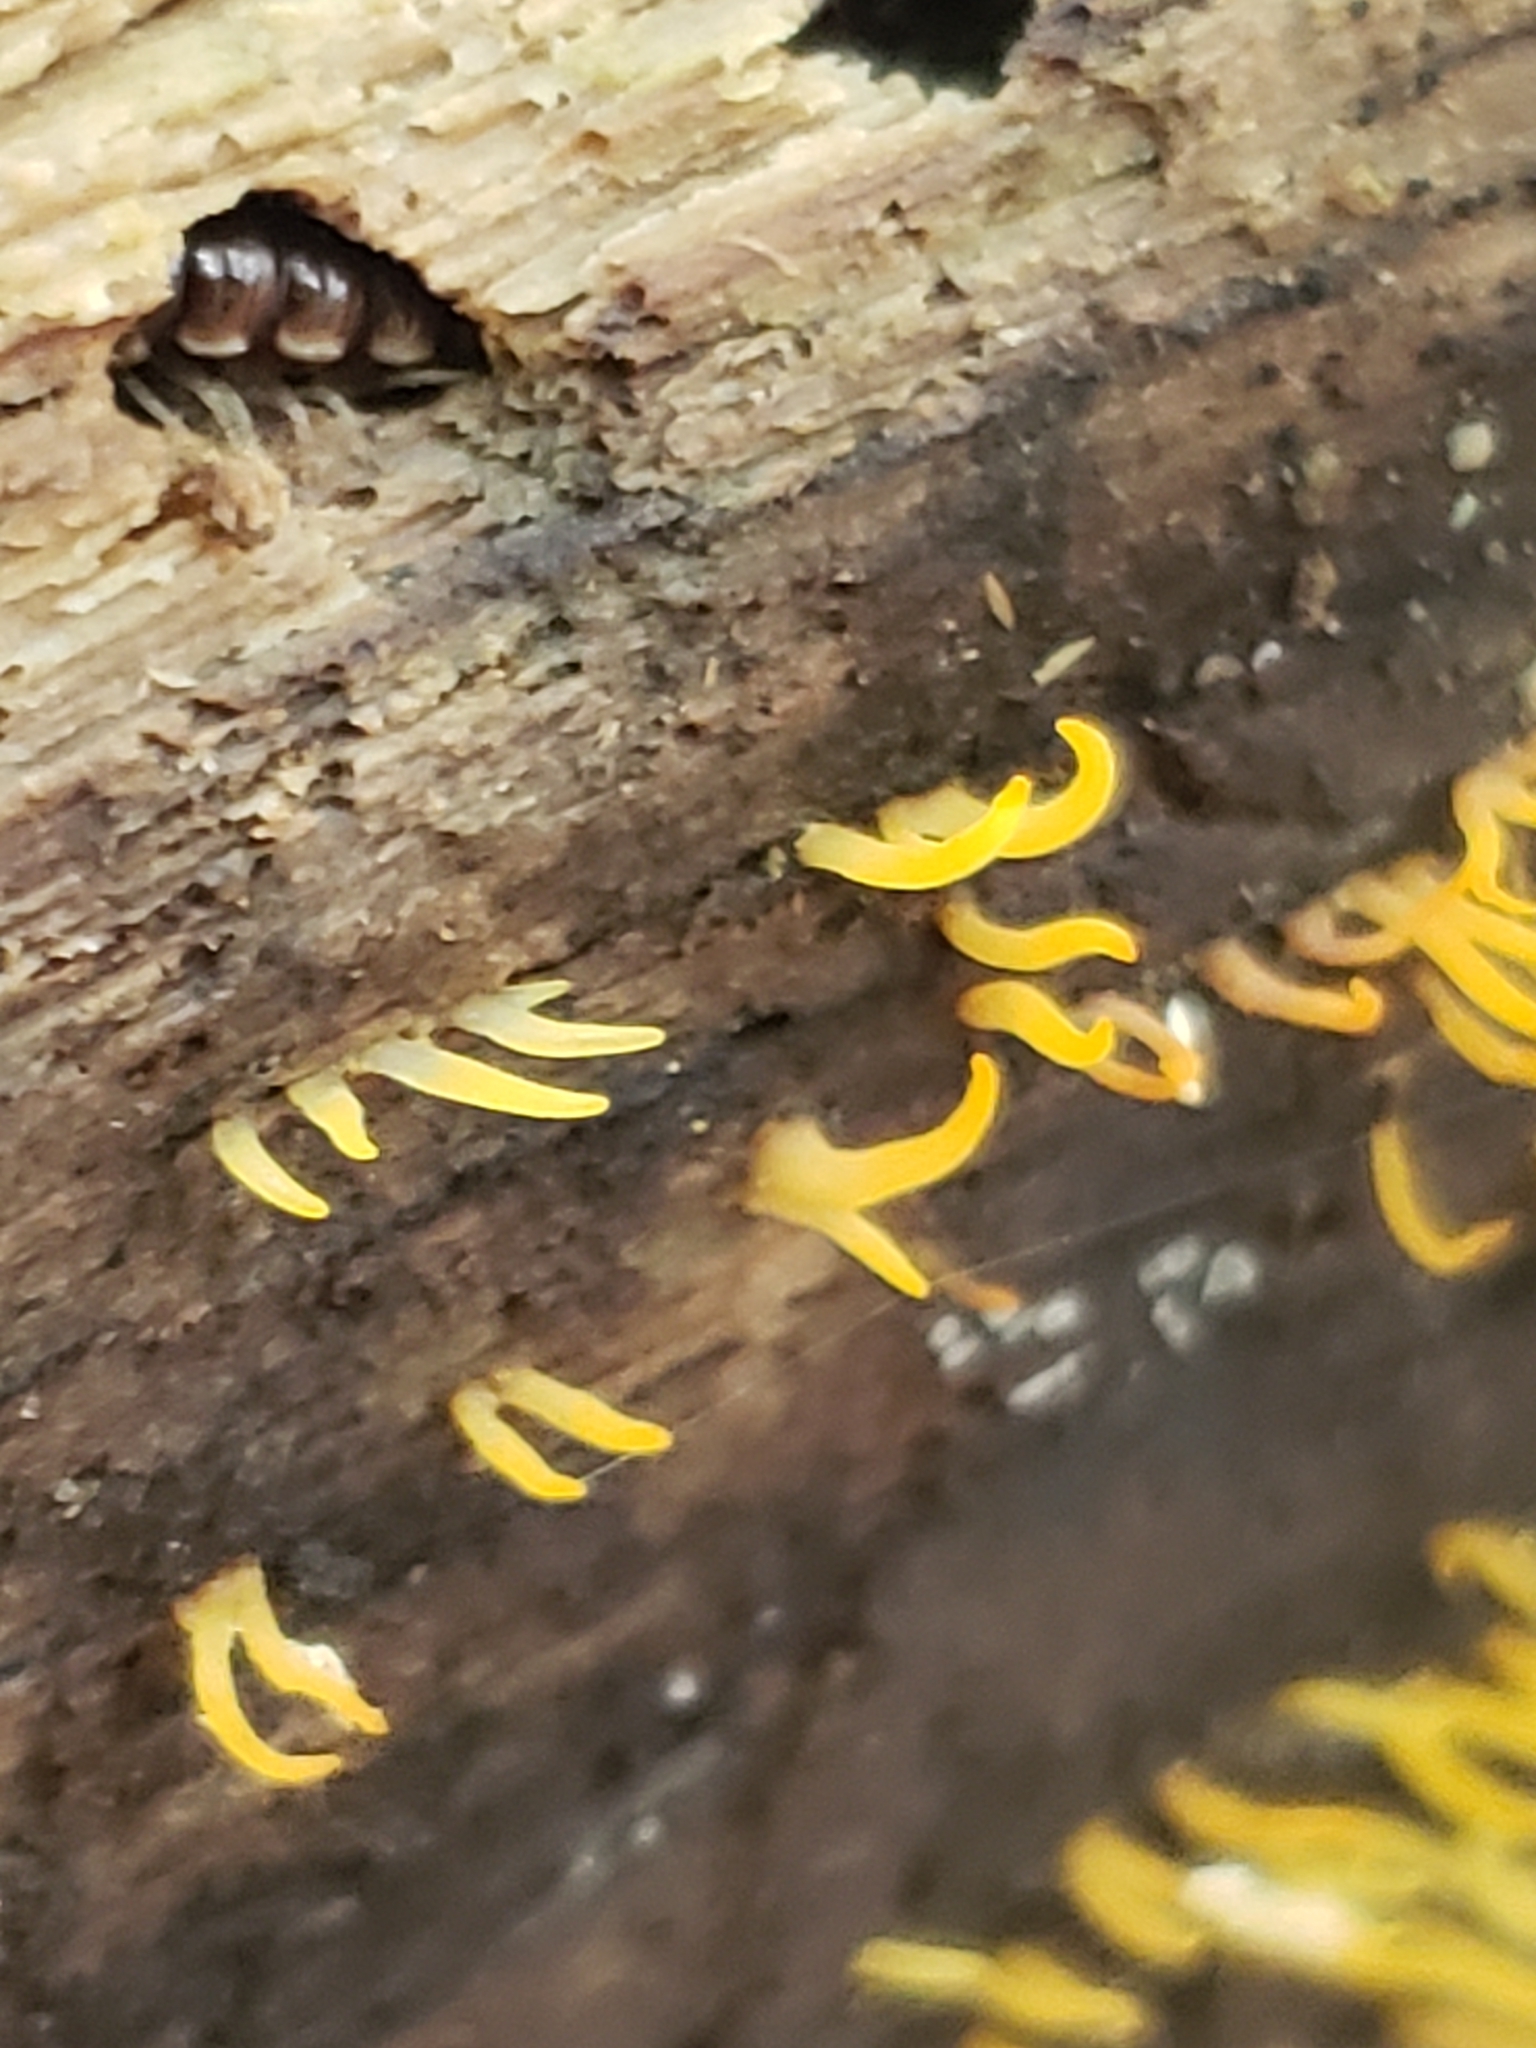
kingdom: Fungi
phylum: Basidiomycota
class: Dacrymycetes
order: Dacrymycetales
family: Dacrymycetaceae
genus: Calocera
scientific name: Calocera cornea
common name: Small stagshorn
